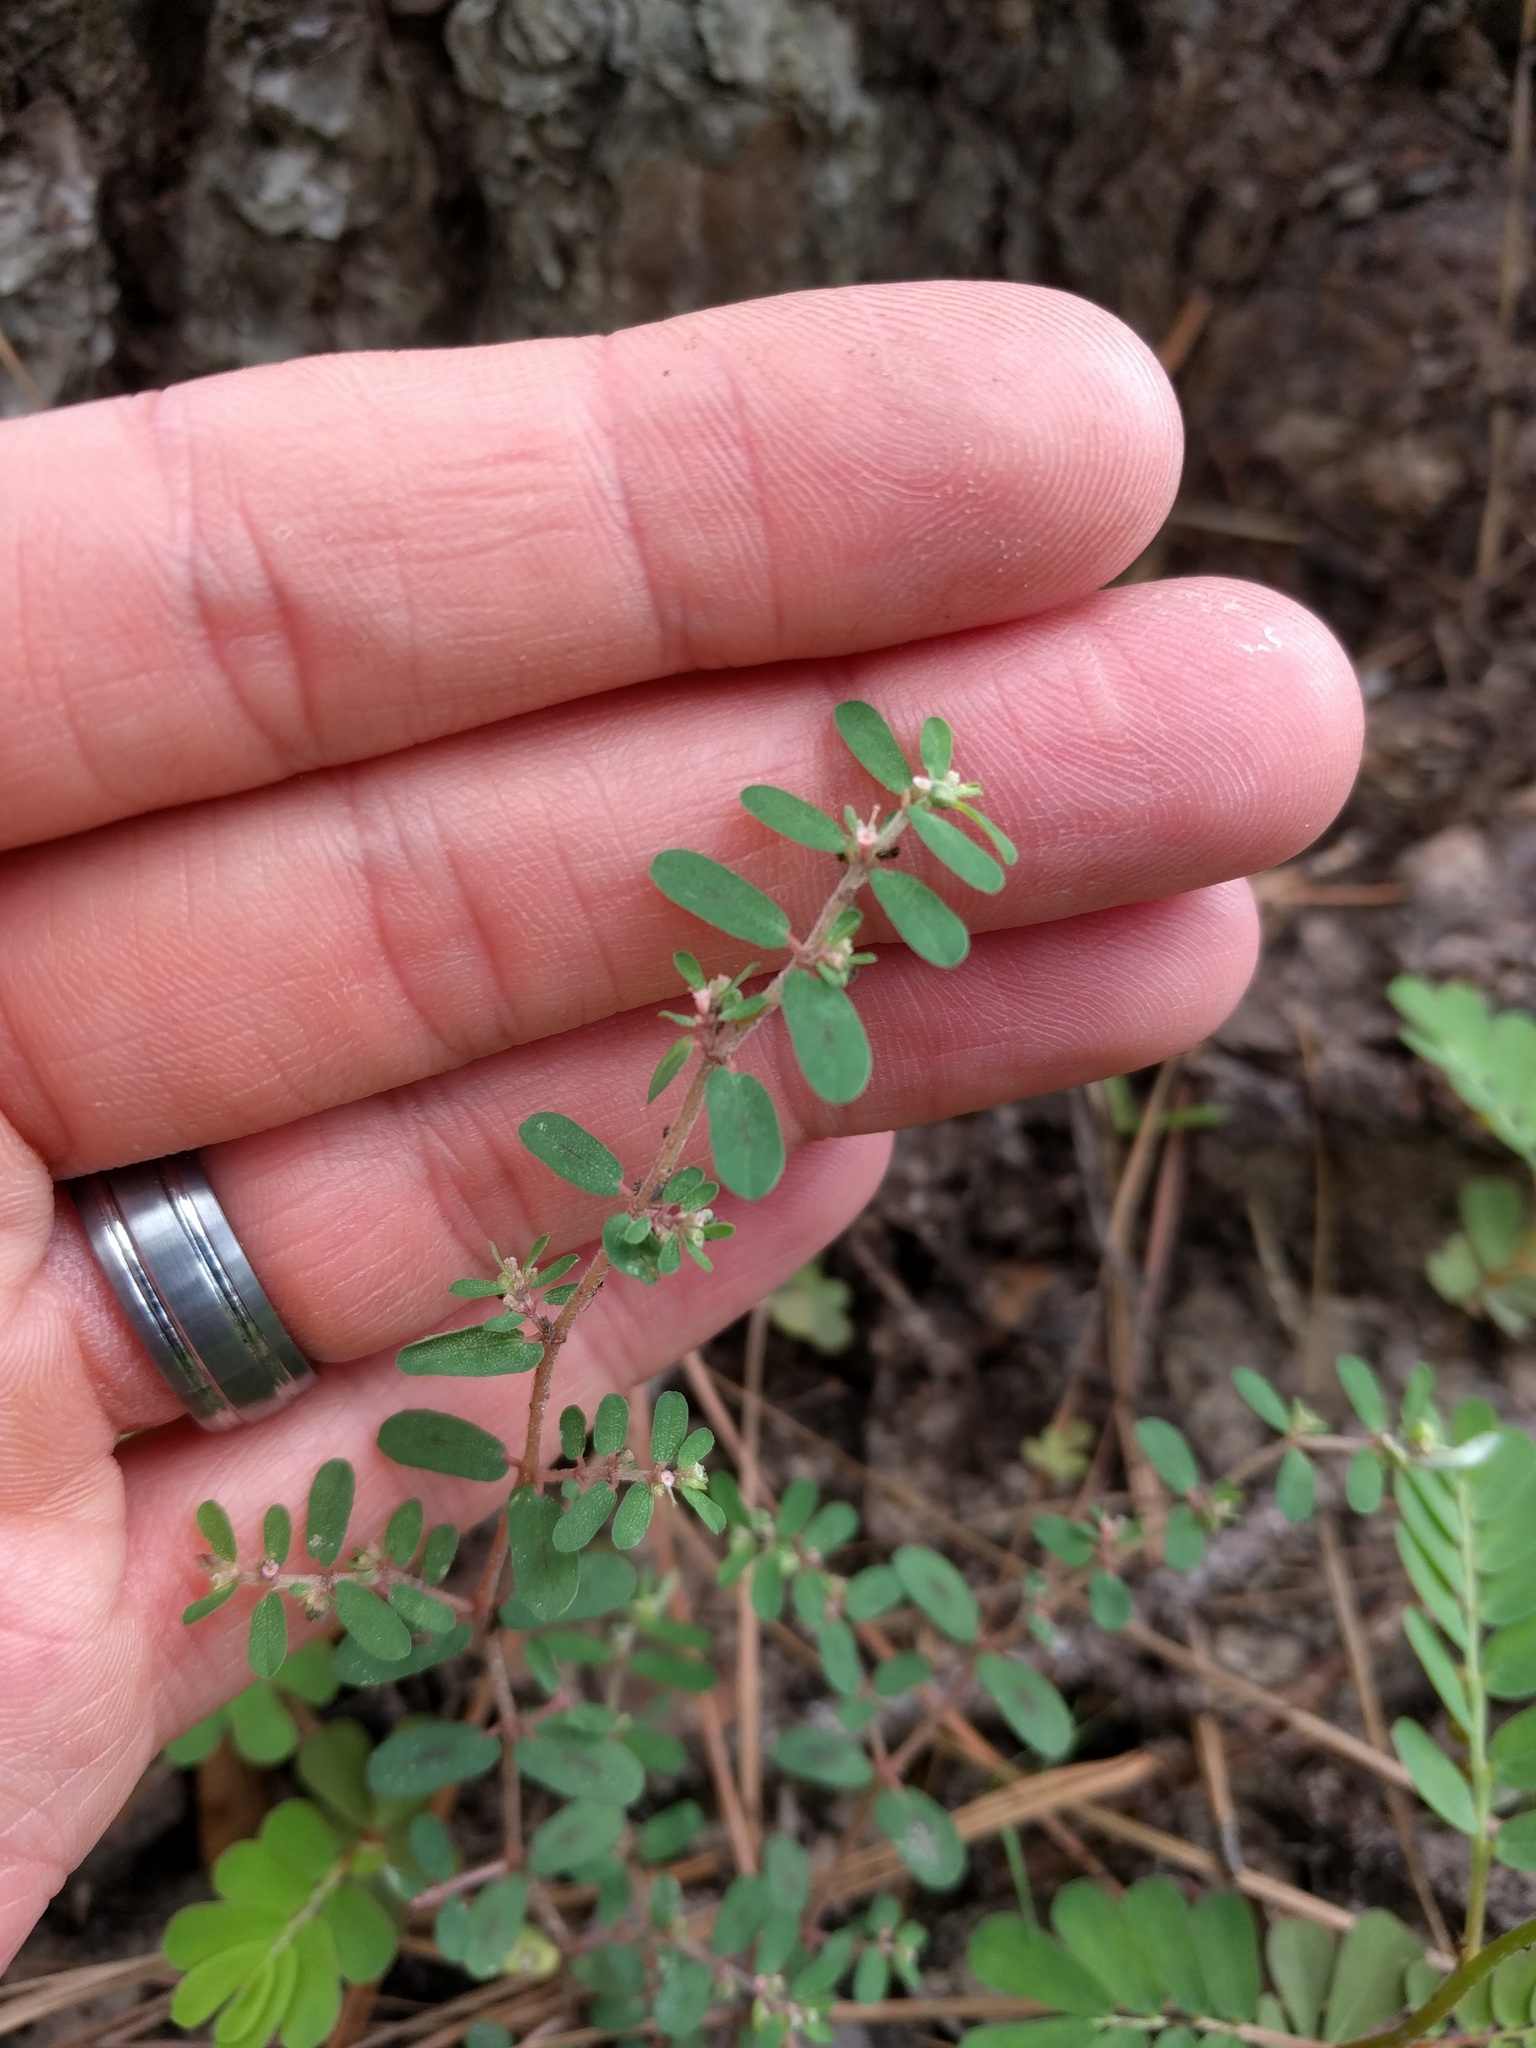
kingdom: Plantae
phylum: Tracheophyta
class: Magnoliopsida
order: Malpighiales
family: Euphorbiaceae
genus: Euphorbia
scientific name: Euphorbia maculata
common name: Spotted spurge
